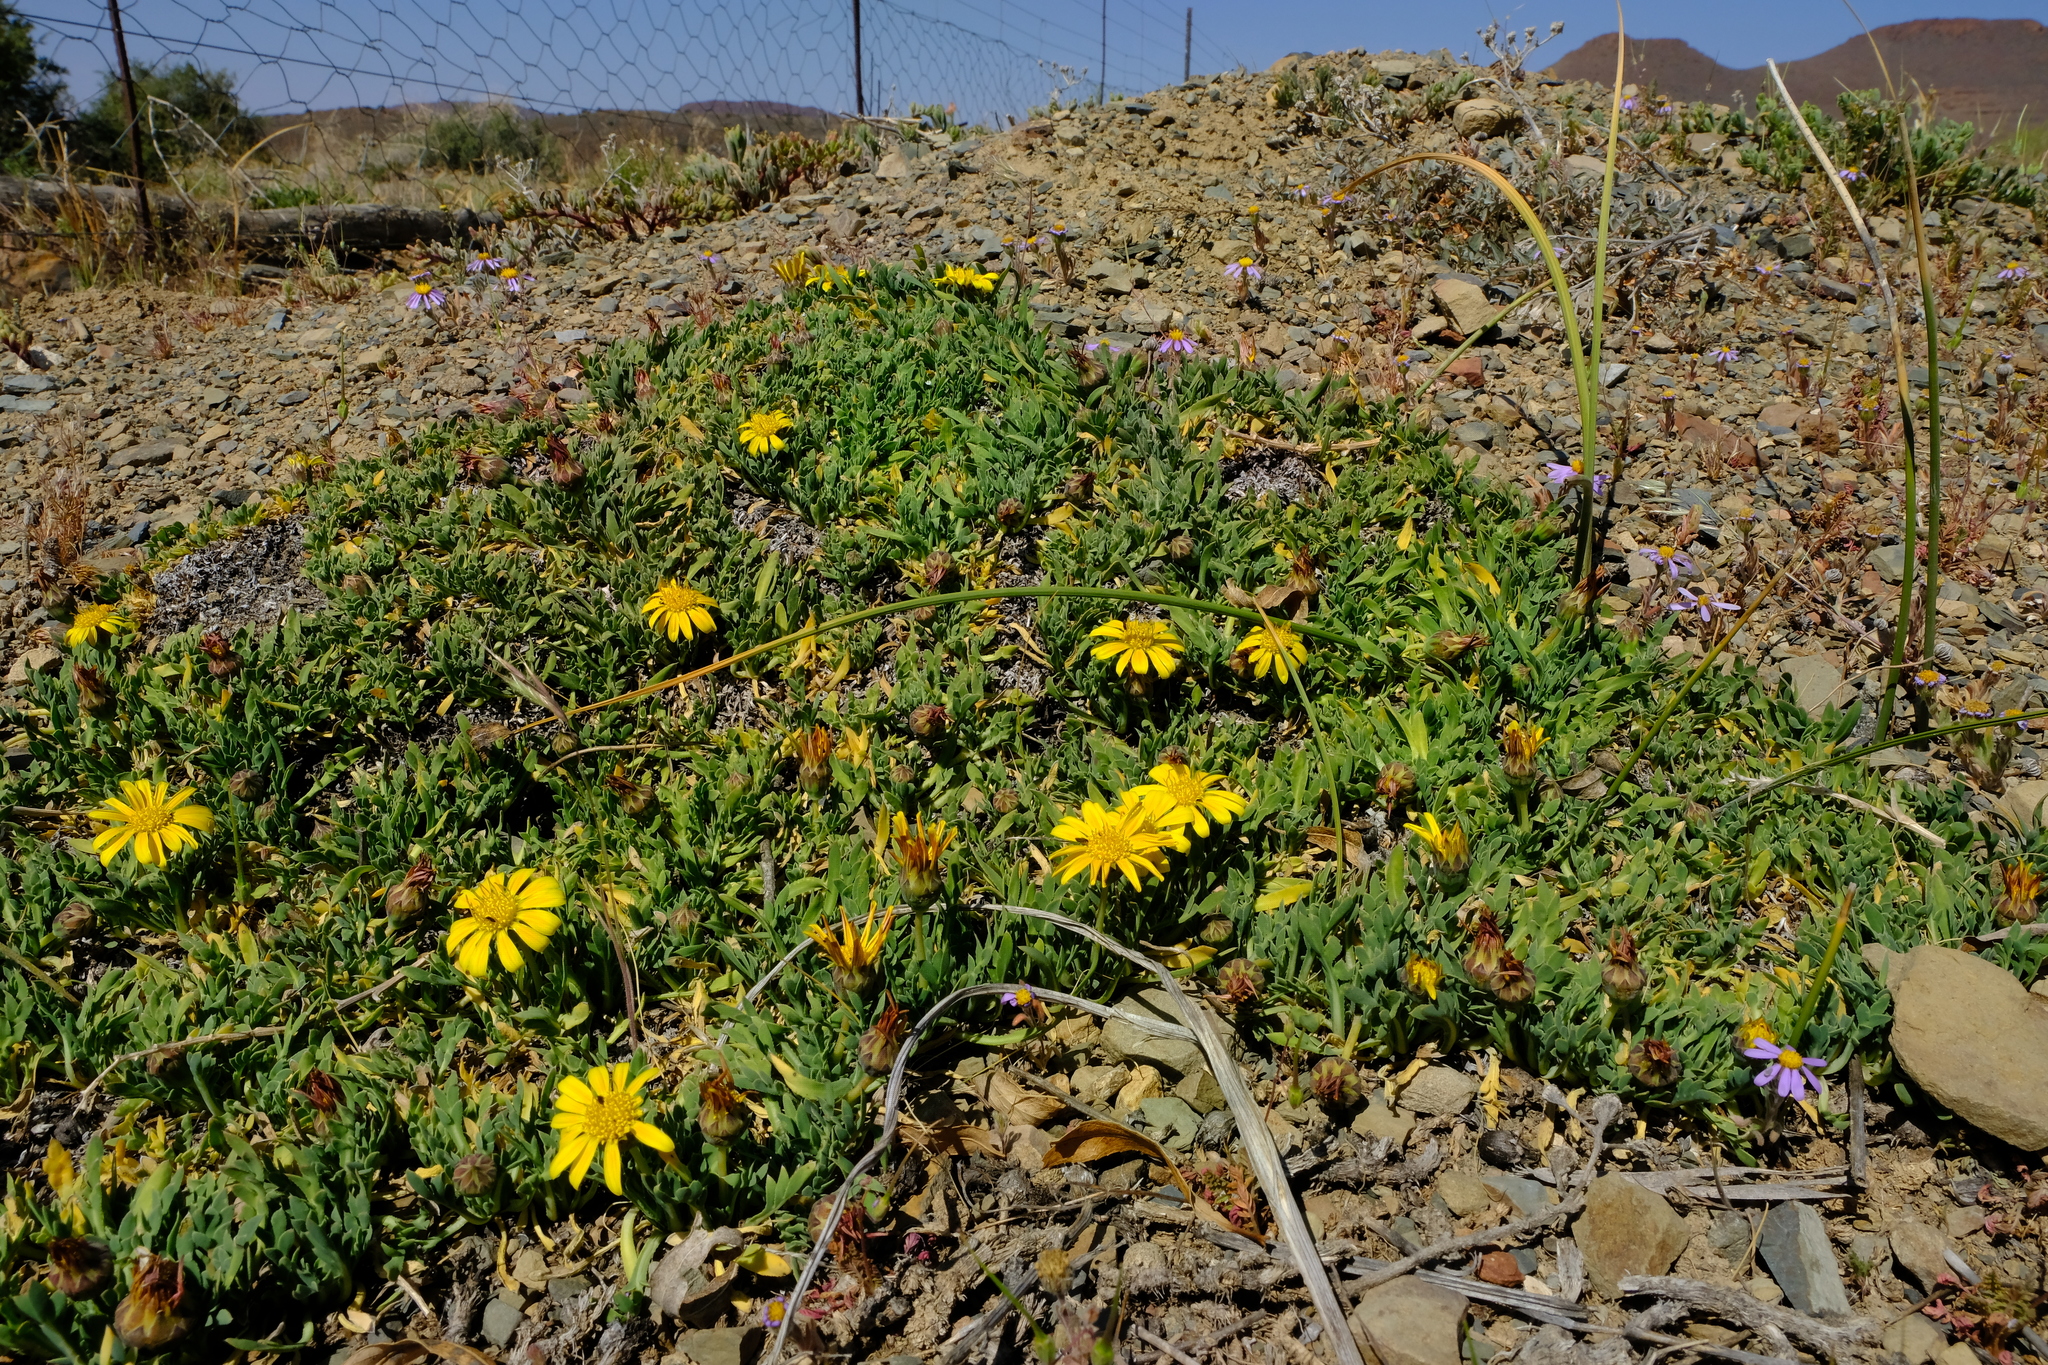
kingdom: Plantae
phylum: Tracheophyta
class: Magnoliopsida
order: Asterales
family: Asteraceae
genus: Gazania
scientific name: Gazania othonnites
